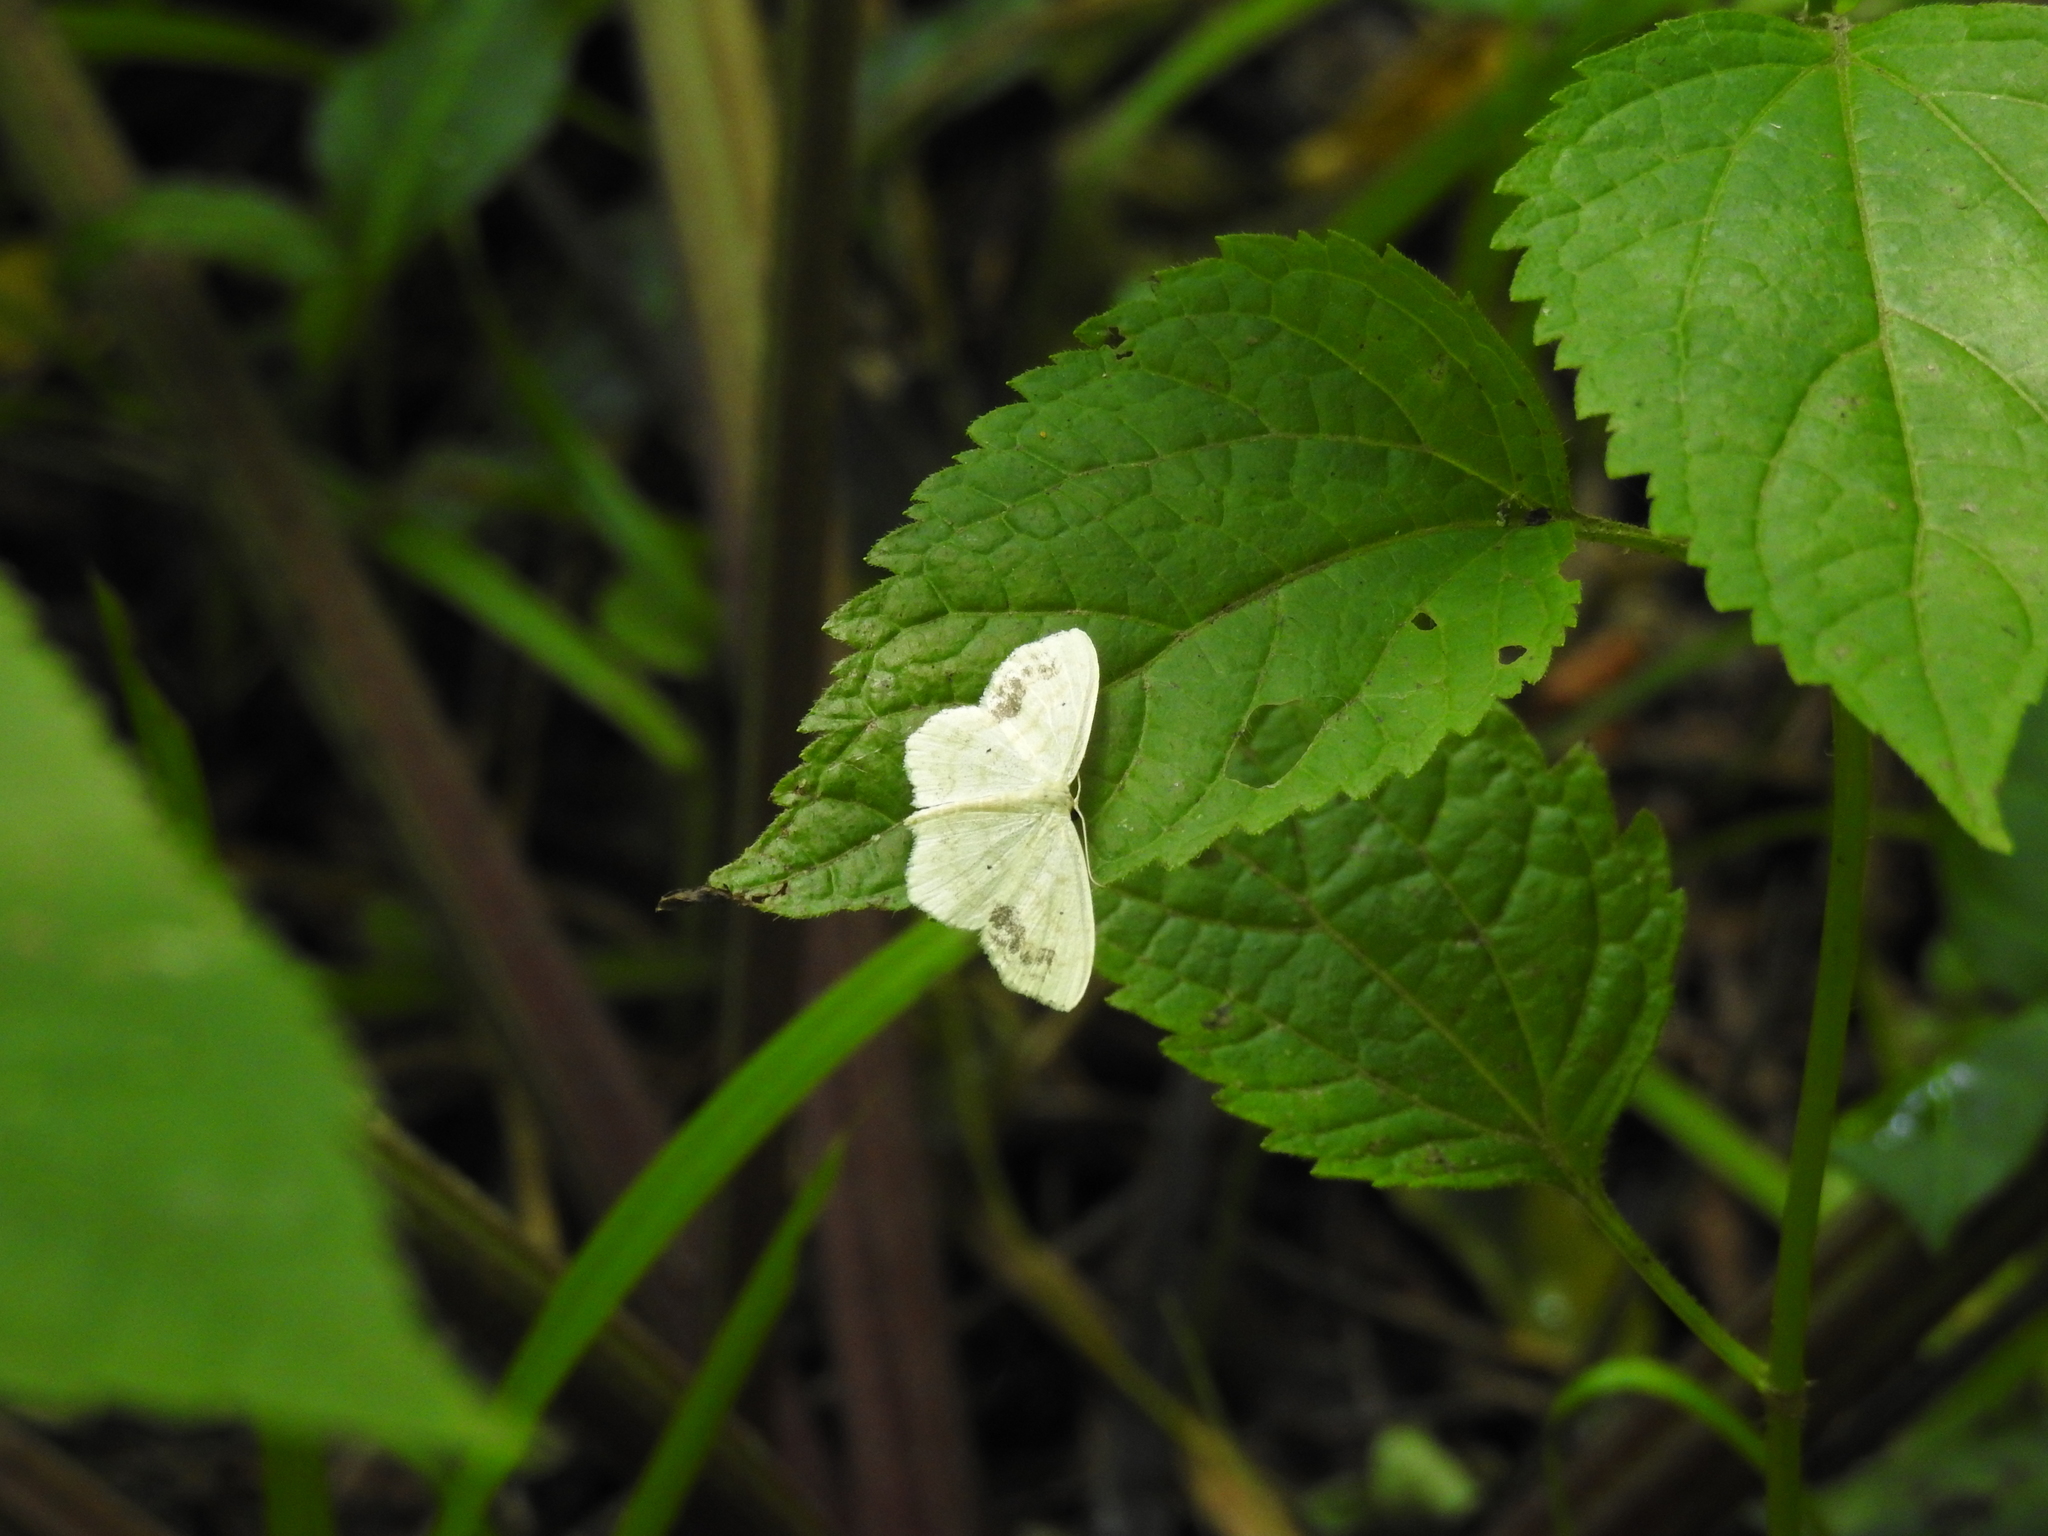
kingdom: Animalia
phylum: Arthropoda
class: Insecta
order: Lepidoptera
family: Geometridae
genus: Scopula
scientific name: Scopula limboundata
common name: Large lace border
